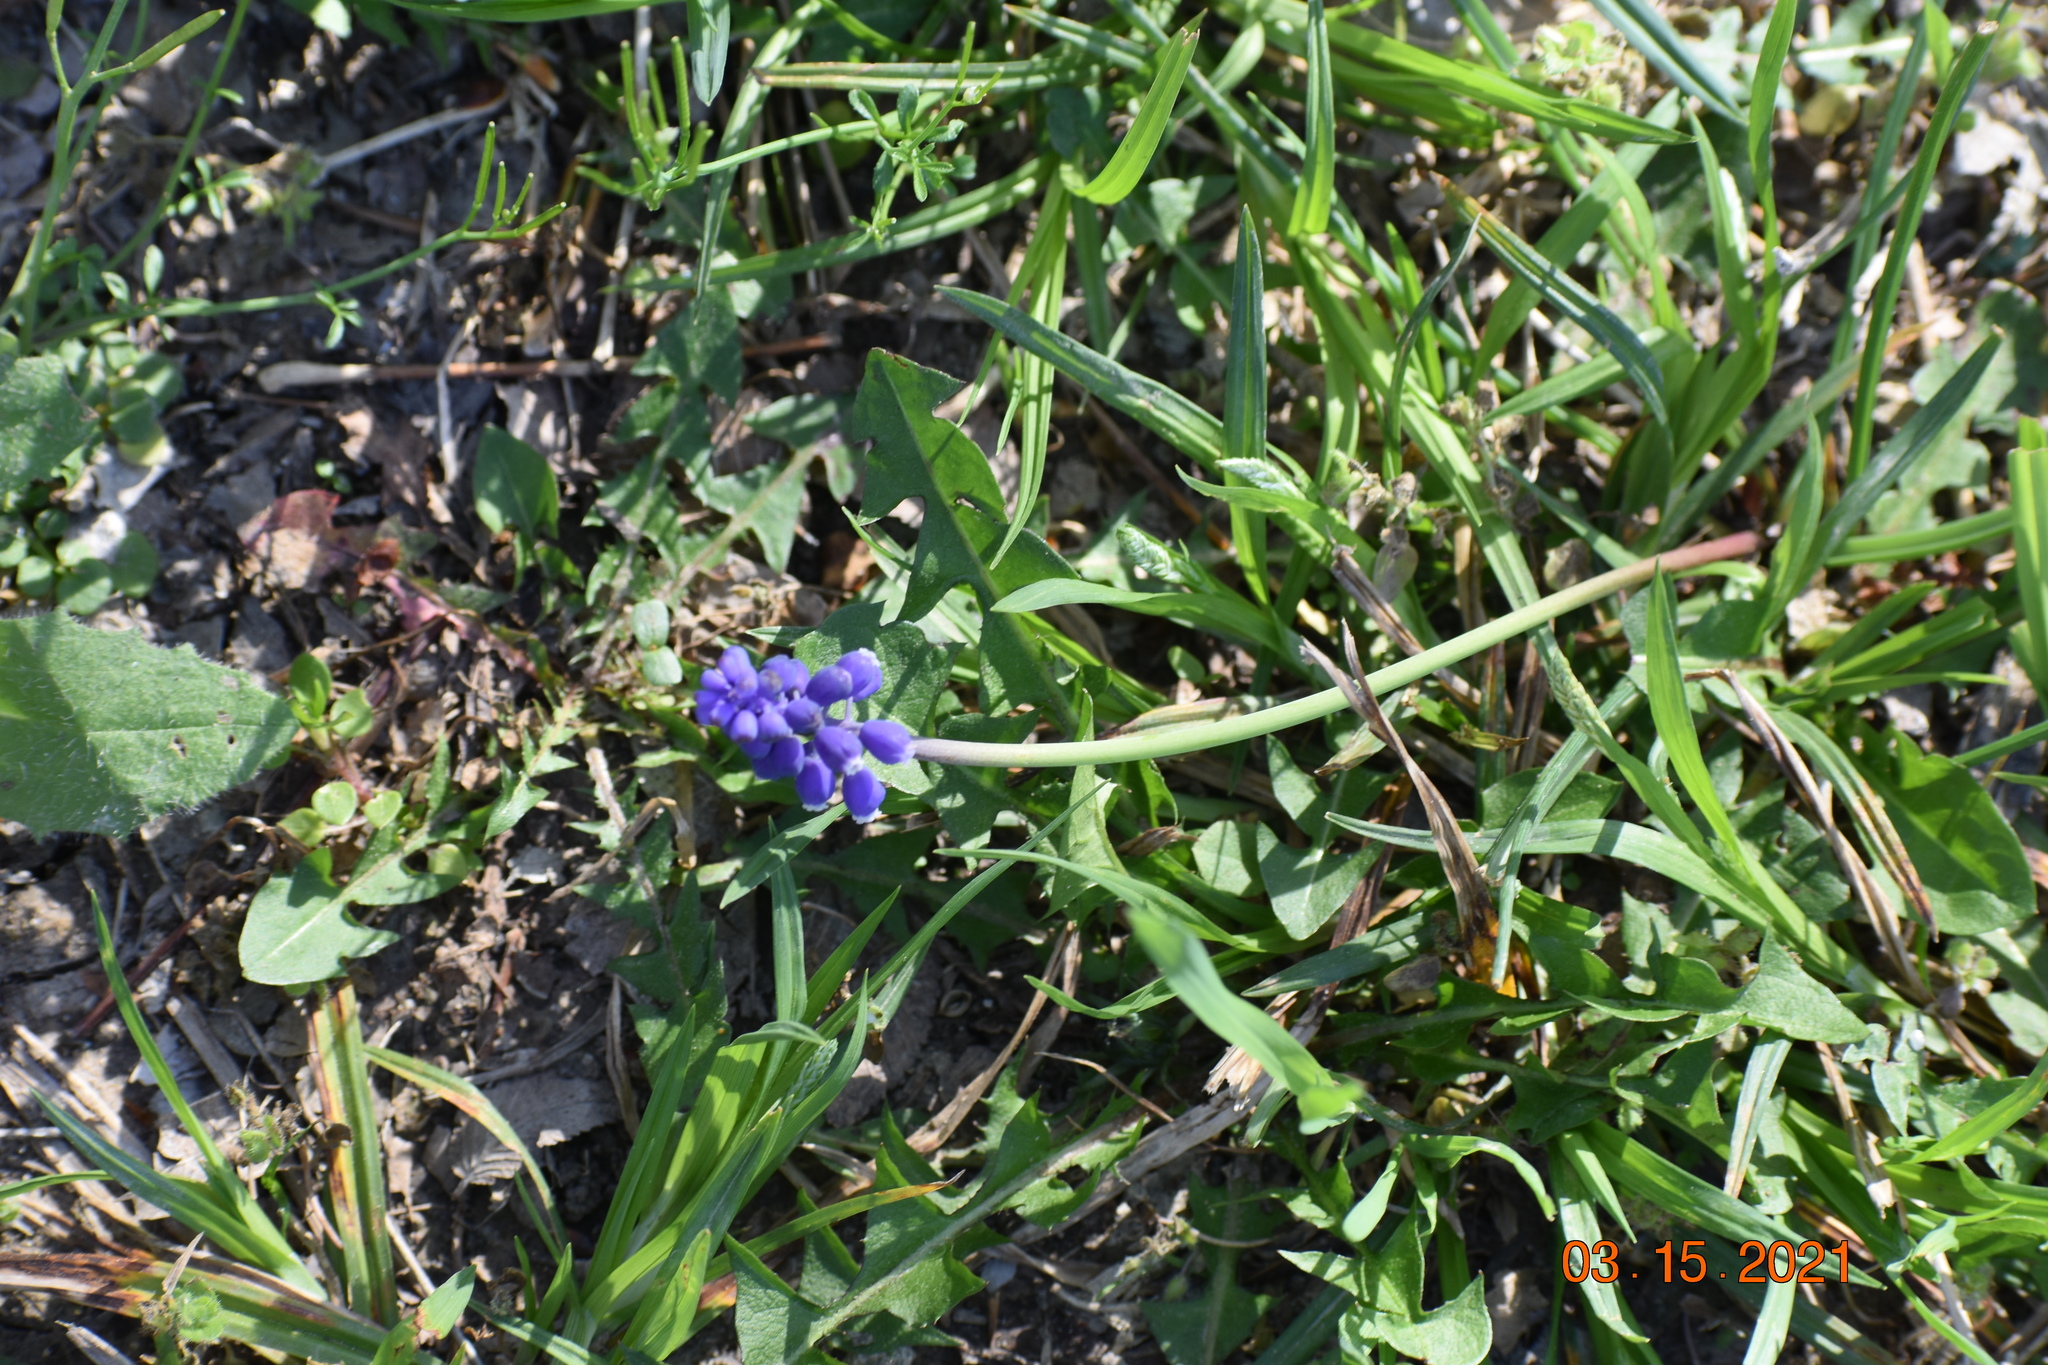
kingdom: Plantae
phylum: Tracheophyta
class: Liliopsida
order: Asparagales
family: Asparagaceae
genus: Muscari
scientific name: Muscari neglectum
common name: Grape-hyacinth
